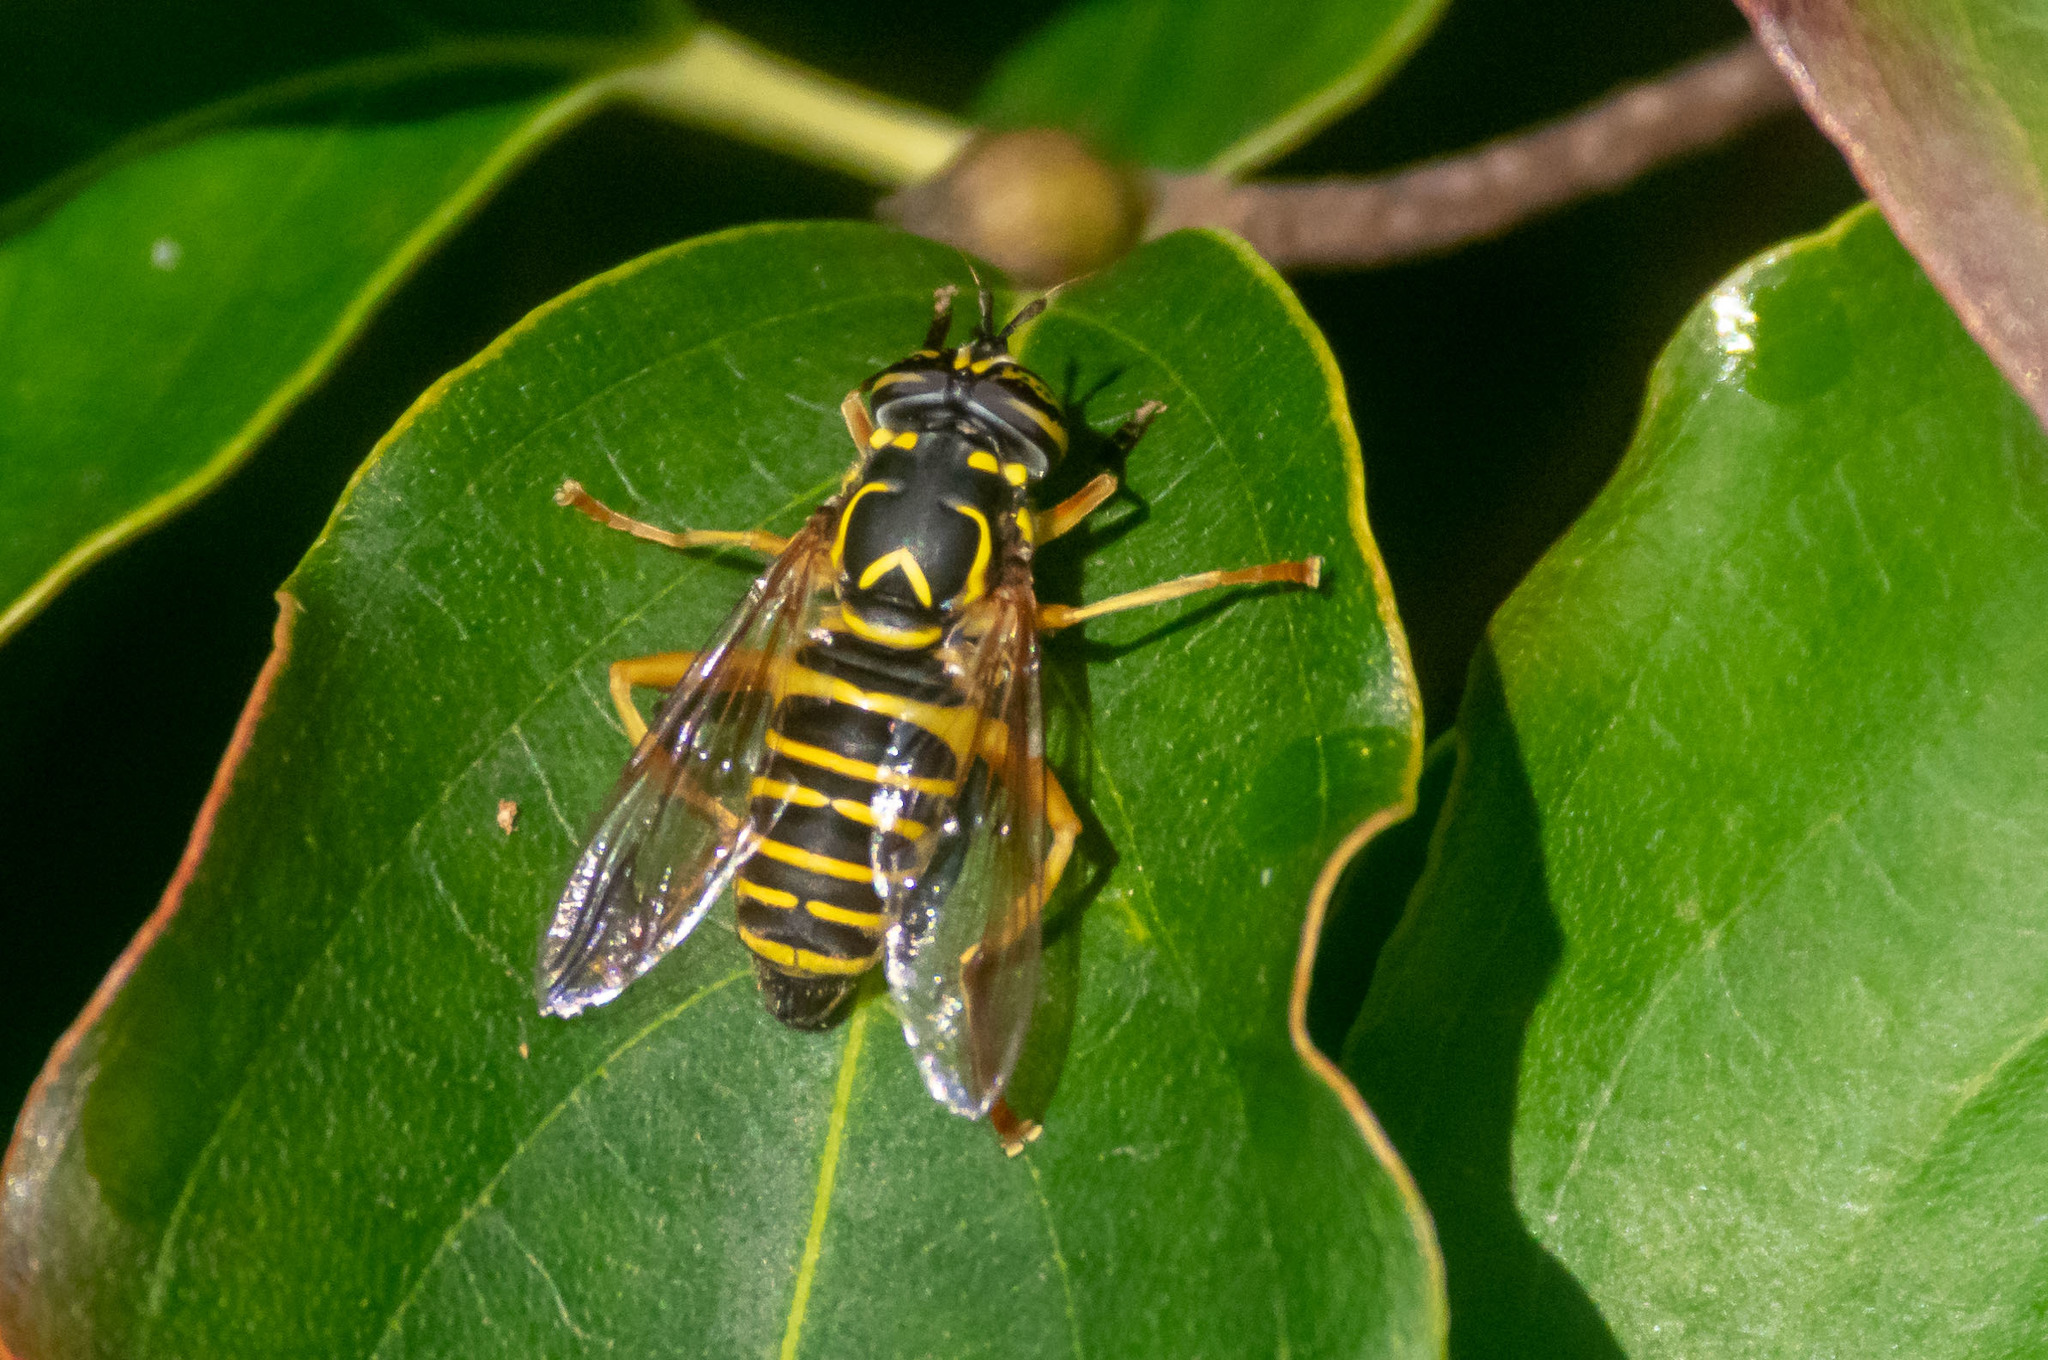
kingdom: Animalia
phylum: Arthropoda
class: Insecta
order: Diptera
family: Syrphidae
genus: Spilomyia
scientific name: Spilomyia longicornis
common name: Eastern hornet fly
